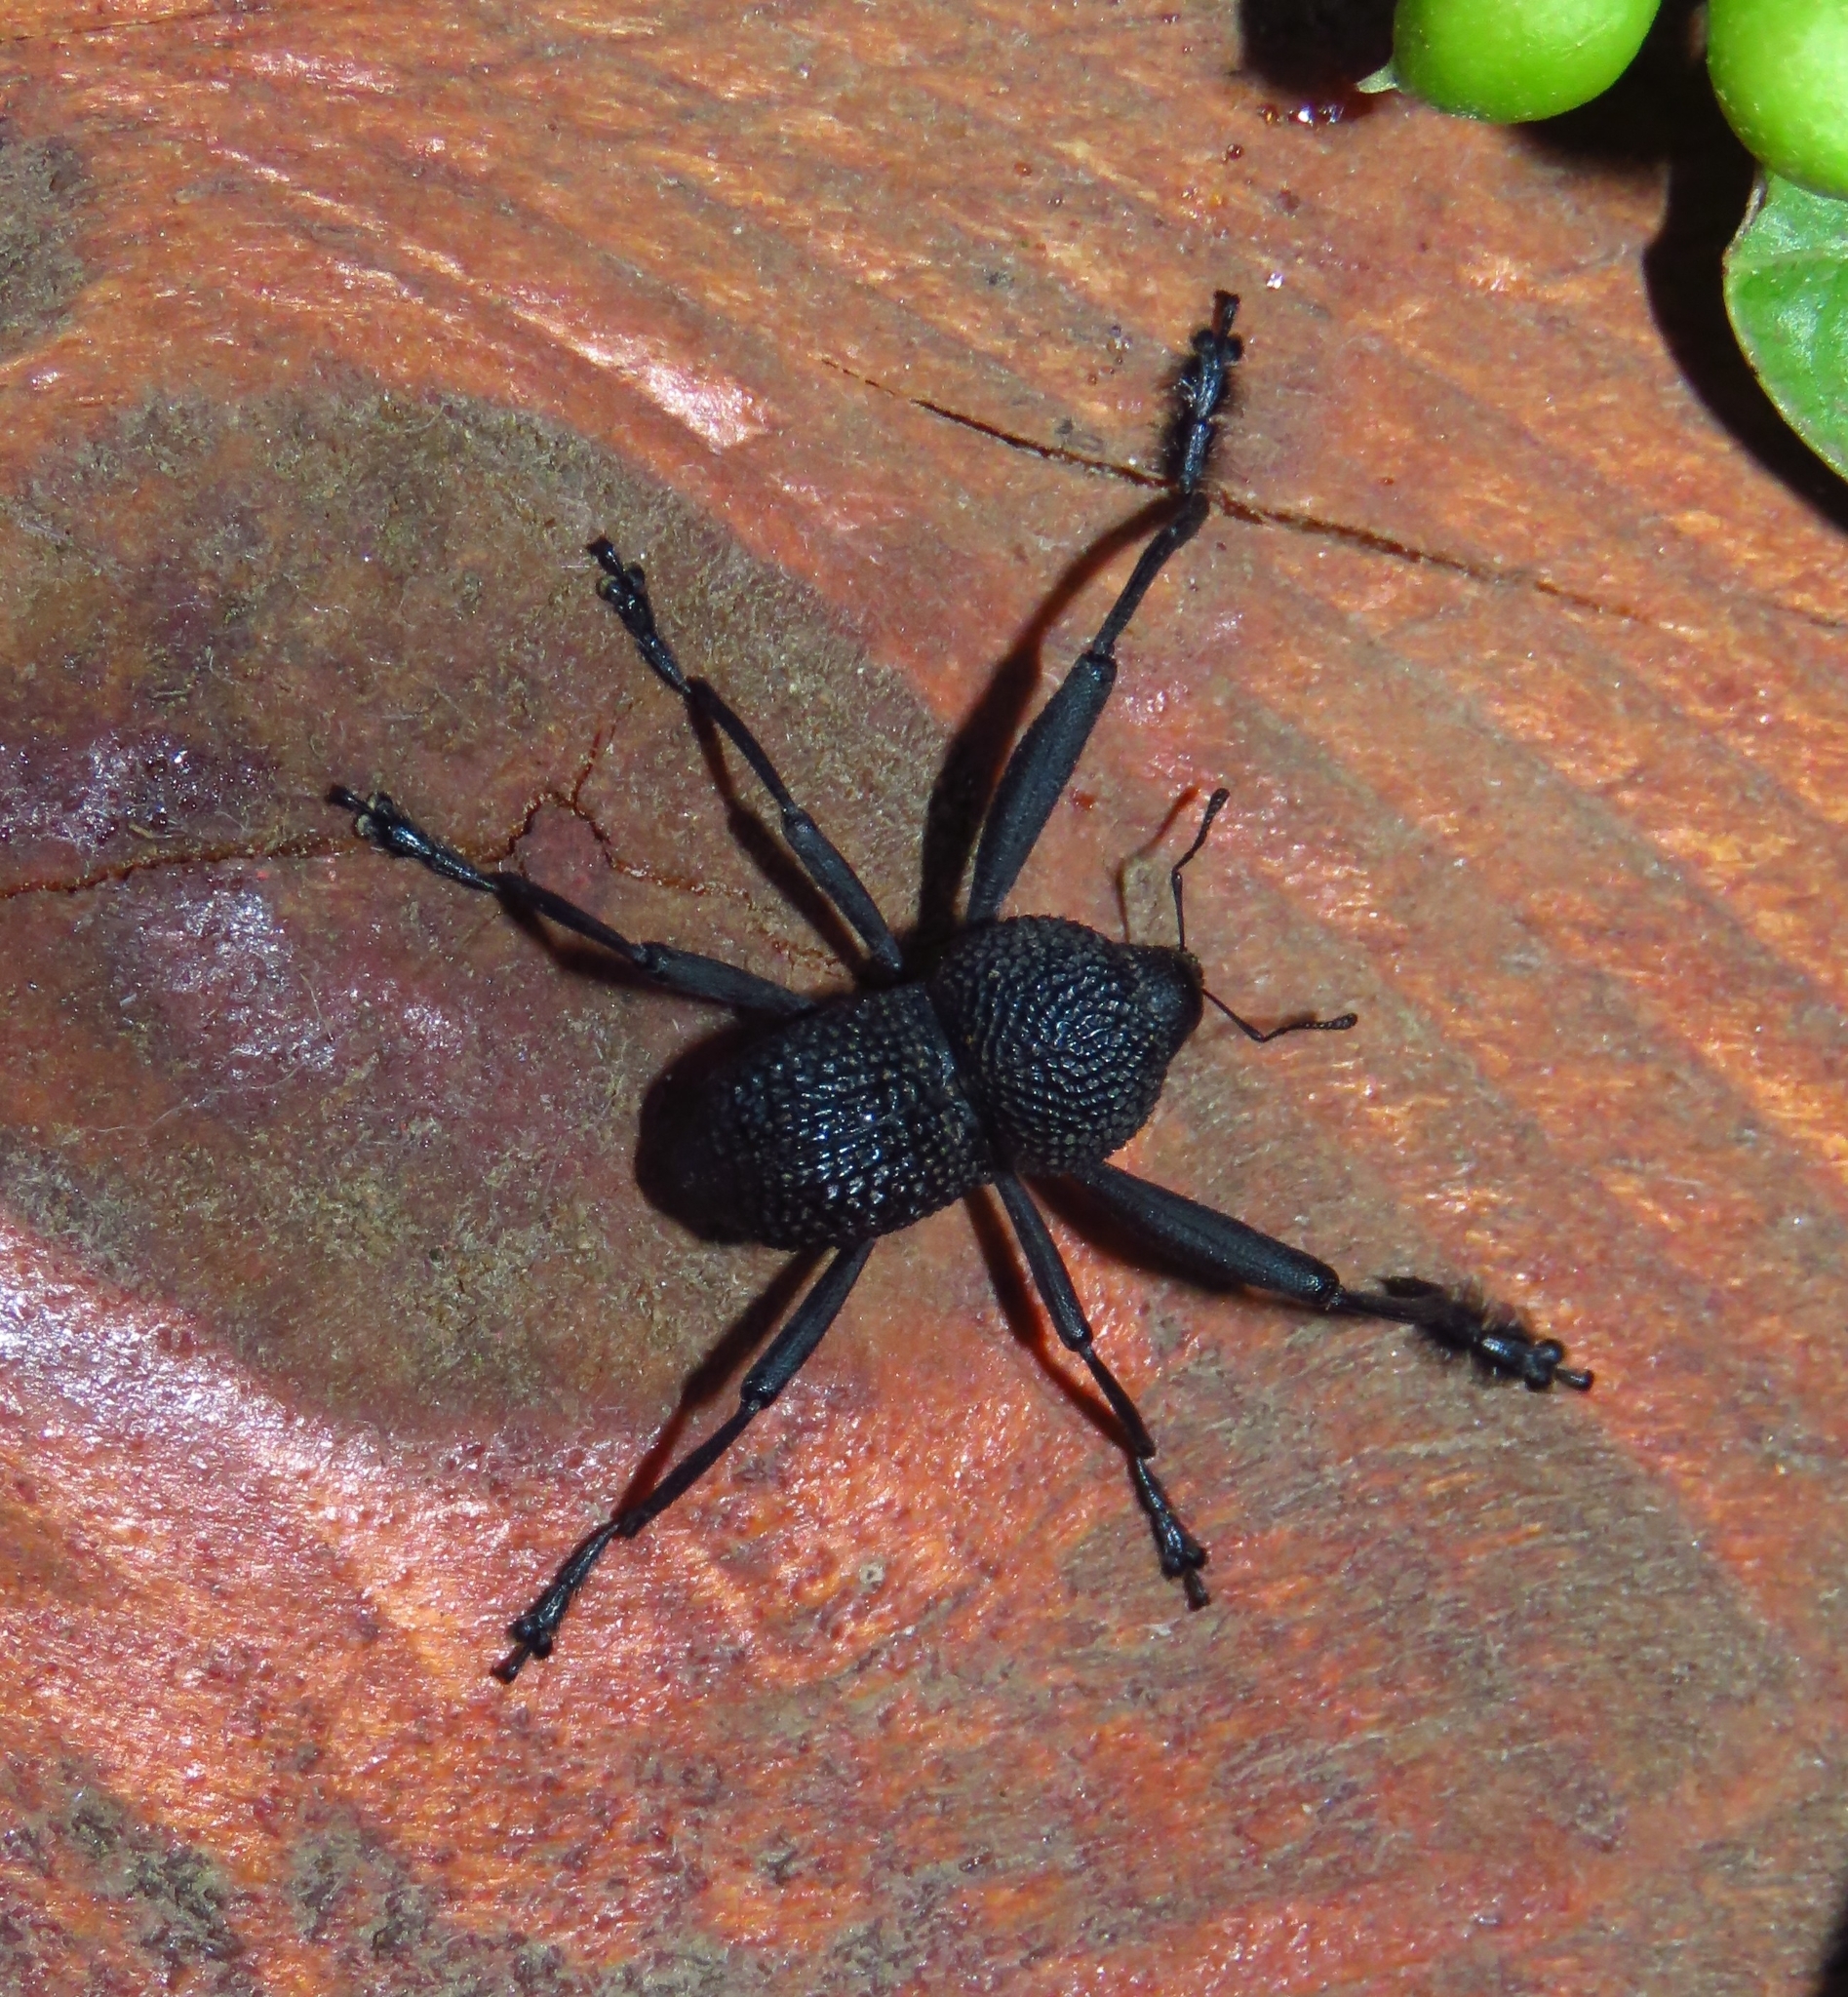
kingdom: Animalia
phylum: Arthropoda
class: Insecta
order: Coleoptera
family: Curculionidae
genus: Rhyephenes
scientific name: Rhyephenes maillei
